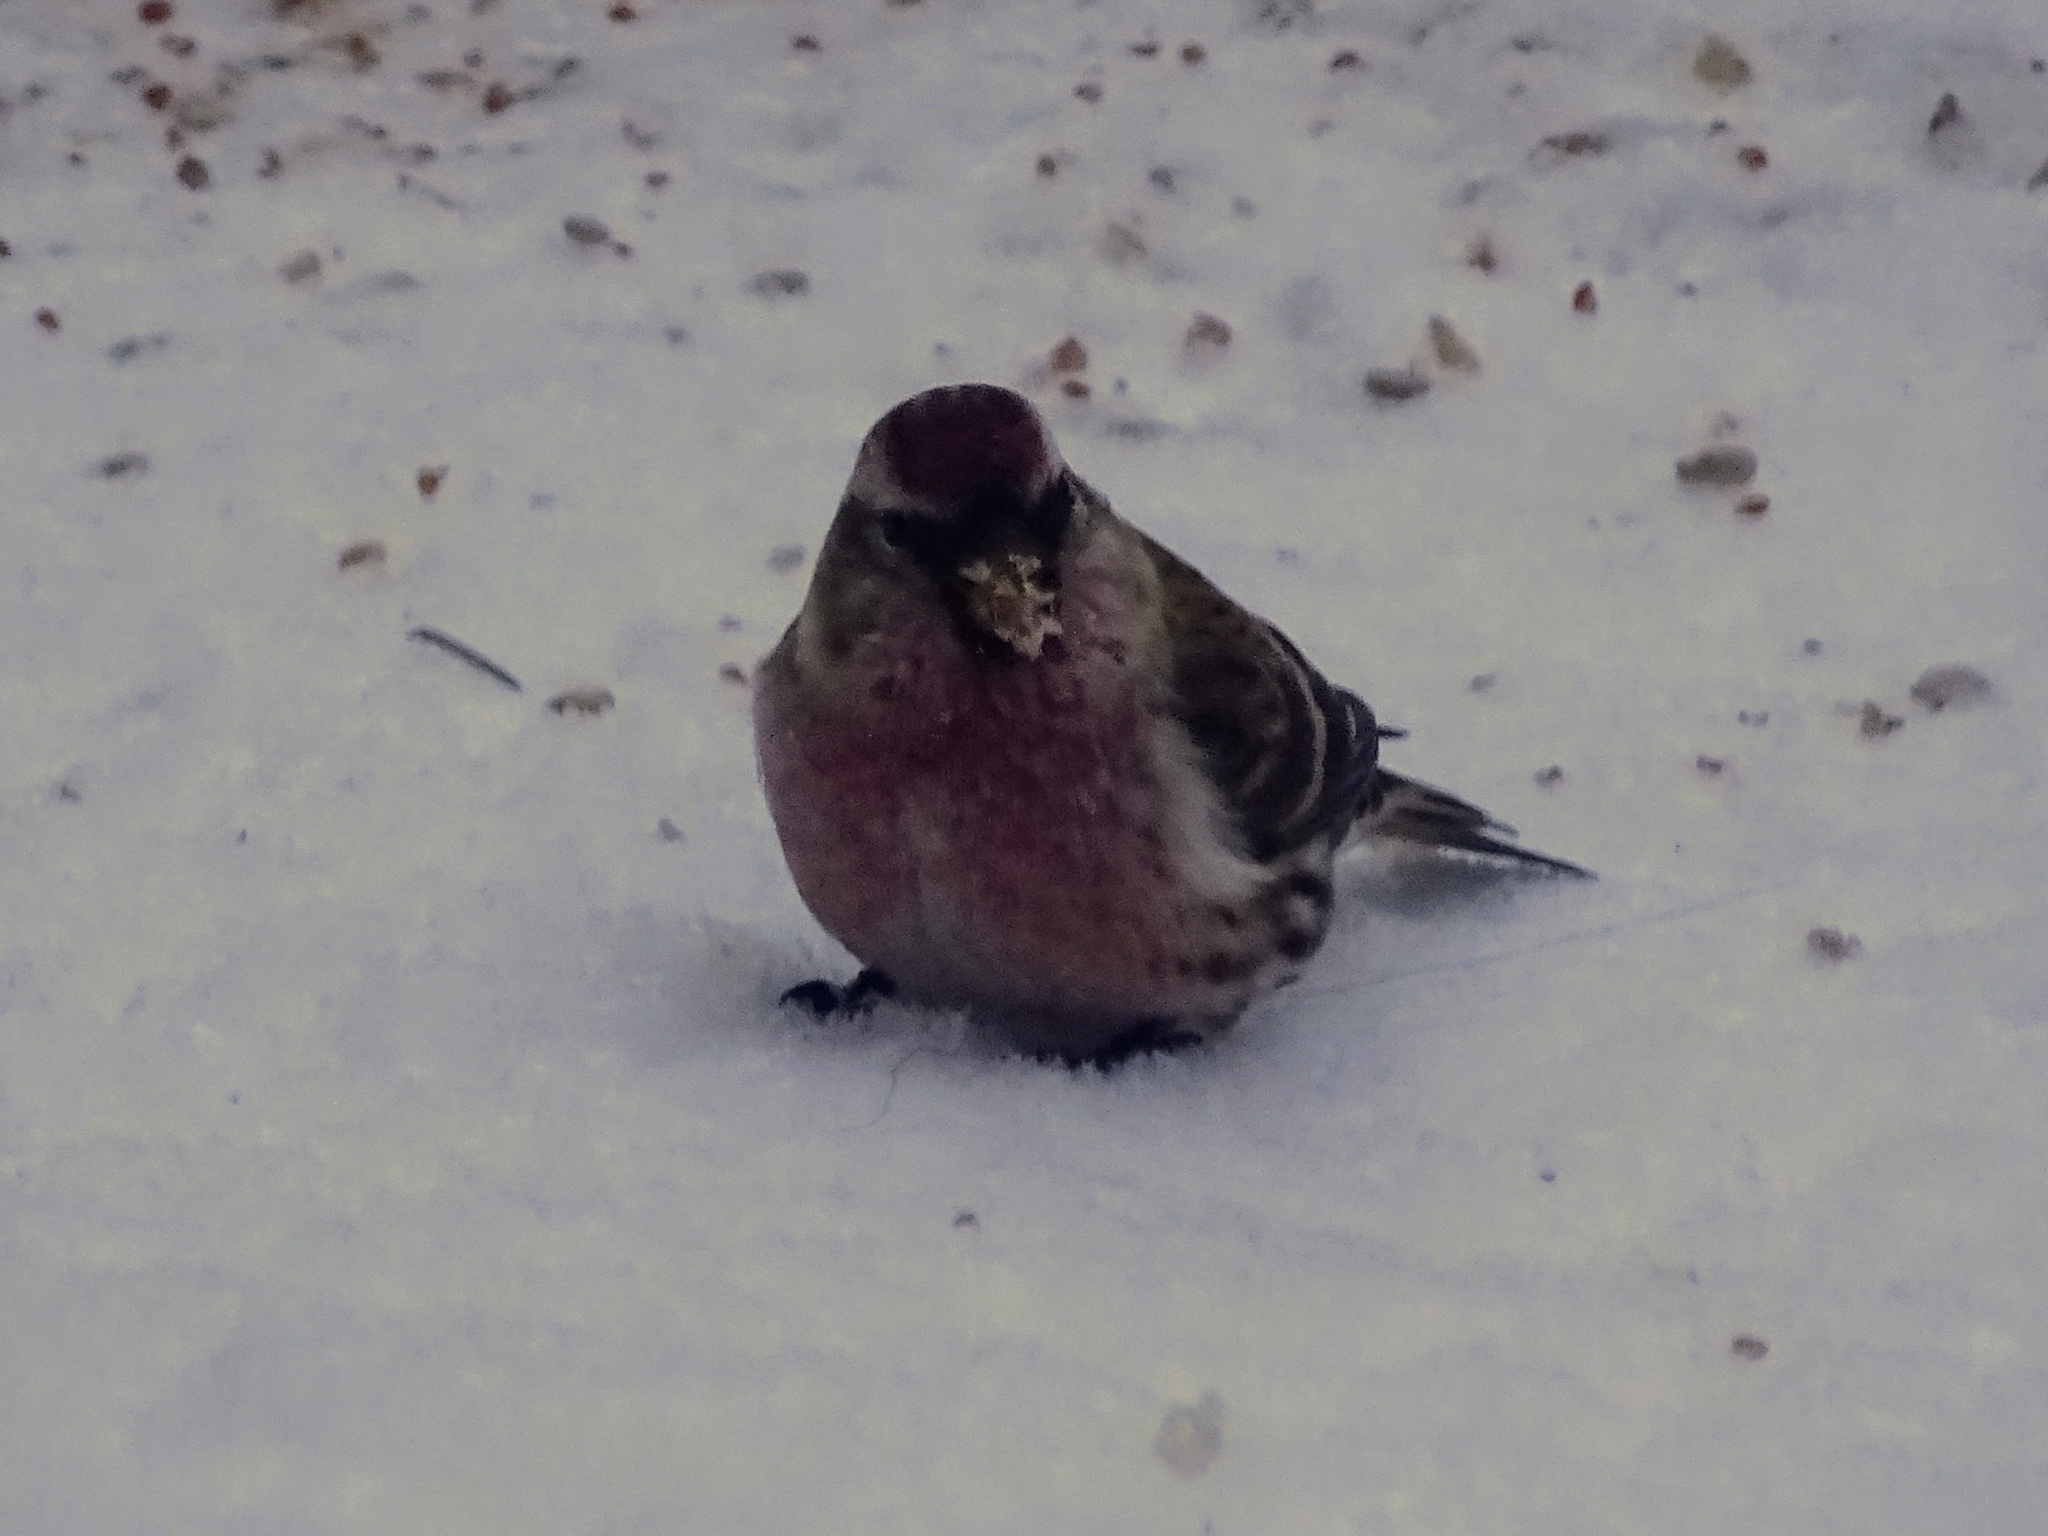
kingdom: Animalia
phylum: Chordata
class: Aves
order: Passeriformes
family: Fringillidae
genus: Acanthis
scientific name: Acanthis flammea
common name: Common redpoll
